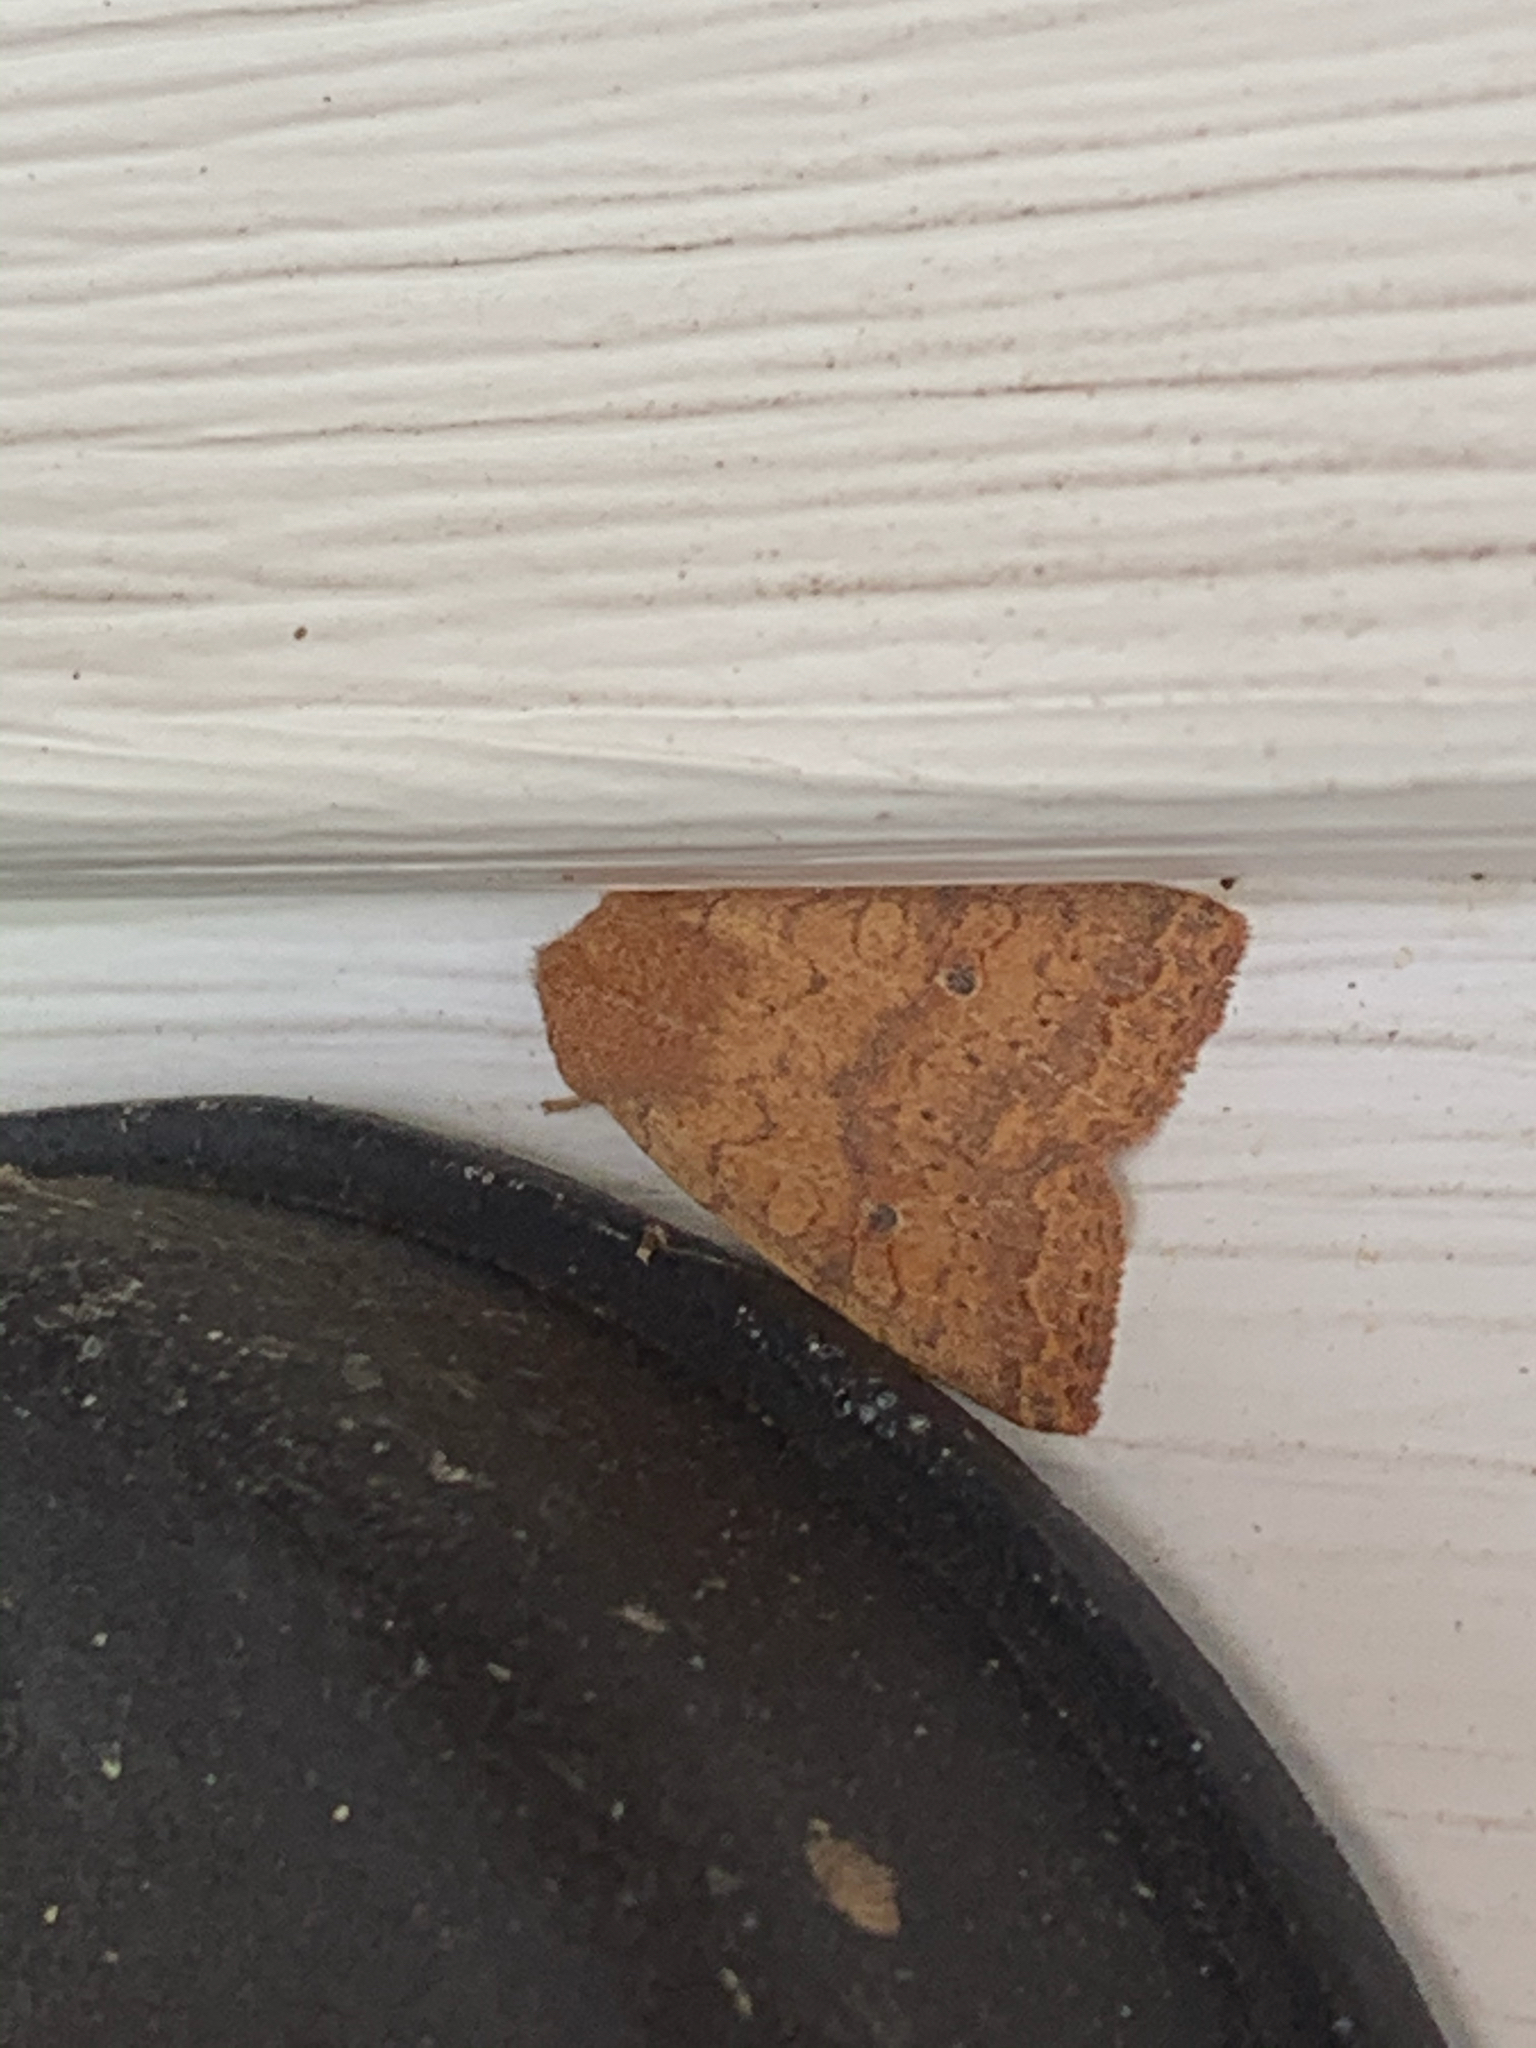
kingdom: Animalia
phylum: Arthropoda
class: Insecta
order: Lepidoptera
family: Noctuidae
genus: Agrochola
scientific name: Agrochola bicolorago
